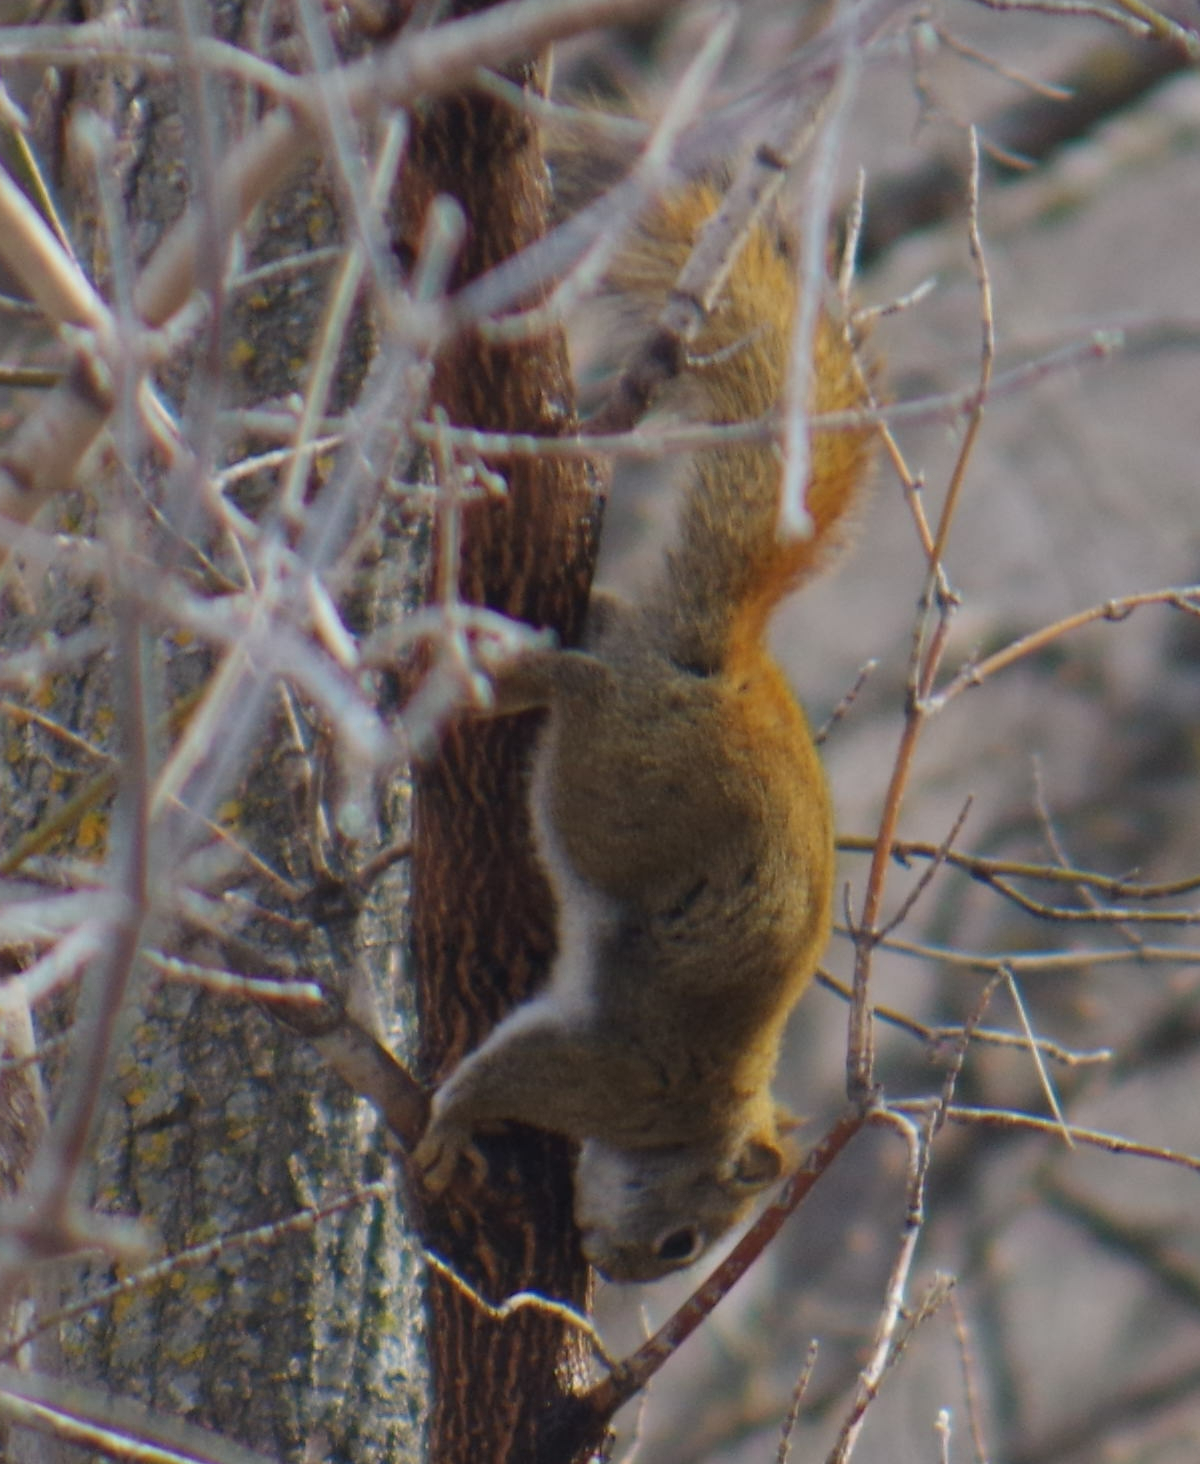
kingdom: Animalia
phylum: Chordata
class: Mammalia
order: Rodentia
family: Sciuridae
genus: Tamiasciurus
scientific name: Tamiasciurus hudsonicus
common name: Red squirrel
